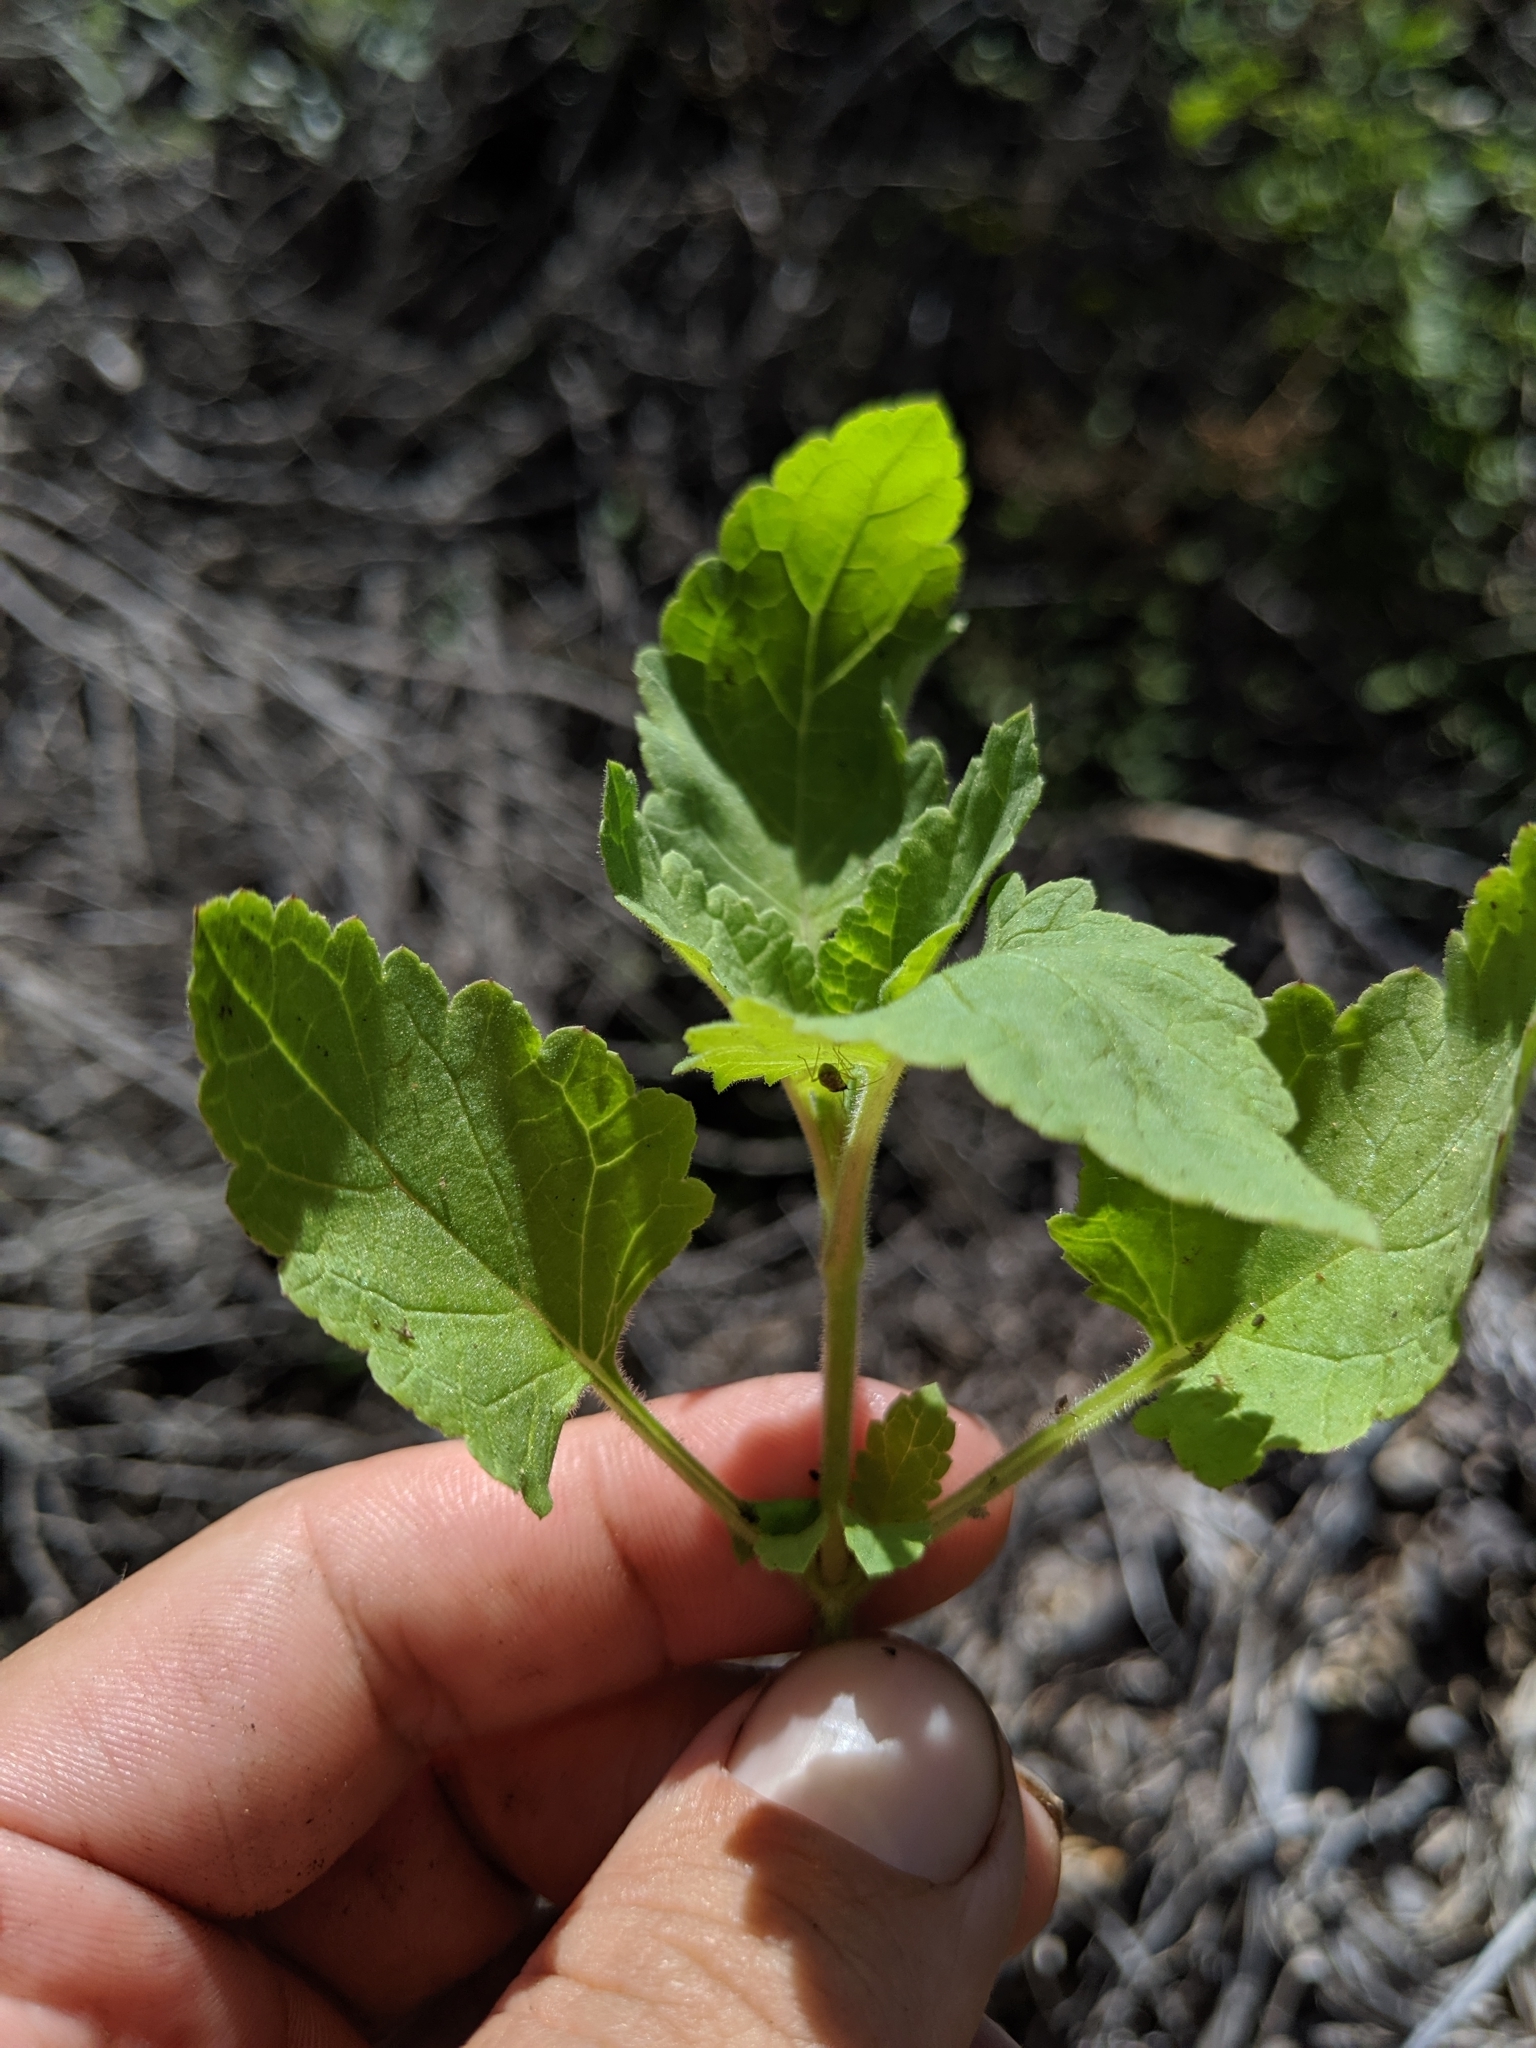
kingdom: Plantae
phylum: Tracheophyta
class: Magnoliopsida
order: Lamiales
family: Scrophulariaceae
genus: Scrophularia
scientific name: Scrophularia californica
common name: California figwort
